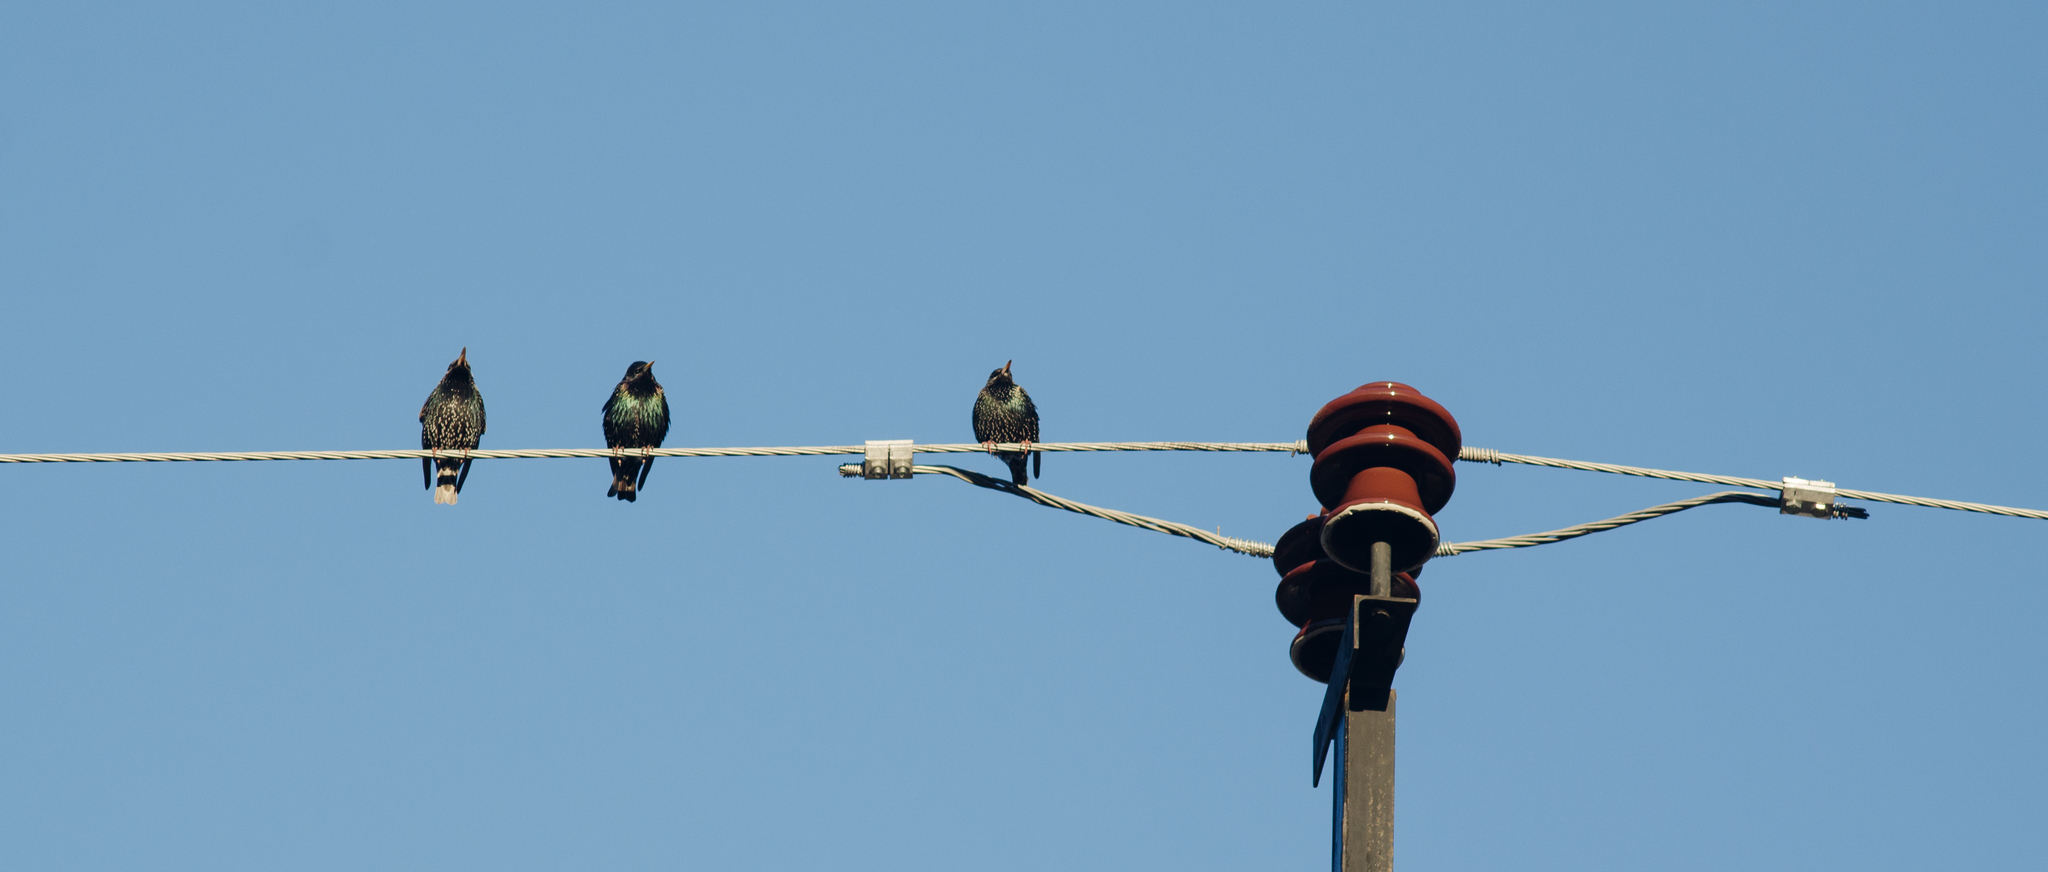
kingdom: Animalia
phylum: Chordata
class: Aves
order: Passeriformes
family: Sturnidae
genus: Sturnus
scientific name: Sturnus vulgaris
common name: Common starling
